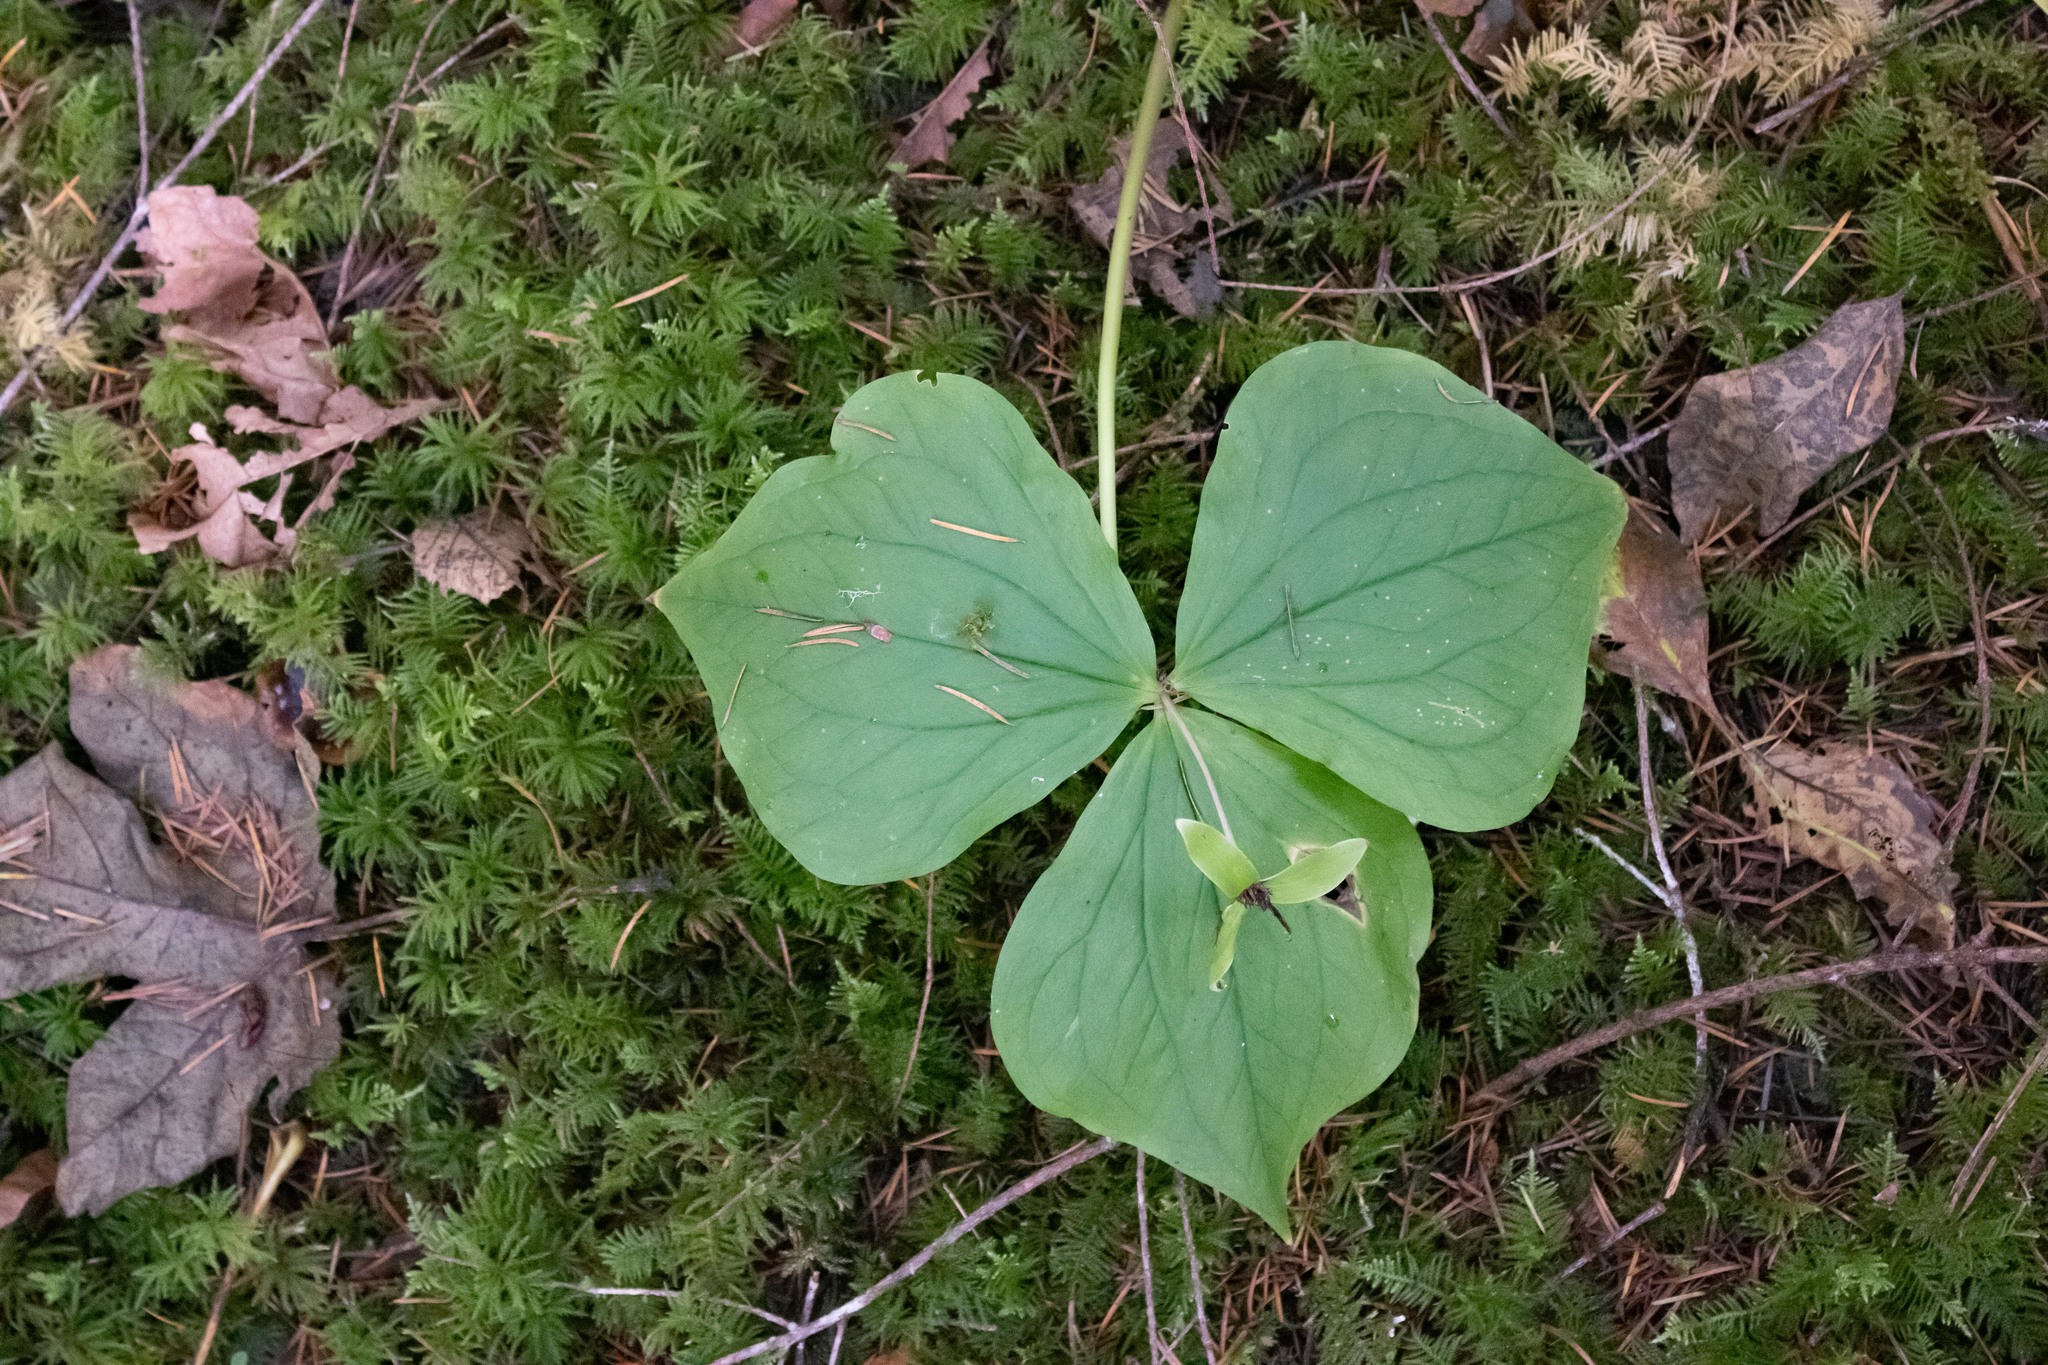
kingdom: Plantae
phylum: Tracheophyta
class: Liliopsida
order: Liliales
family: Melanthiaceae
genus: Trillium
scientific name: Trillium ovatum
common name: Pacific trillium
